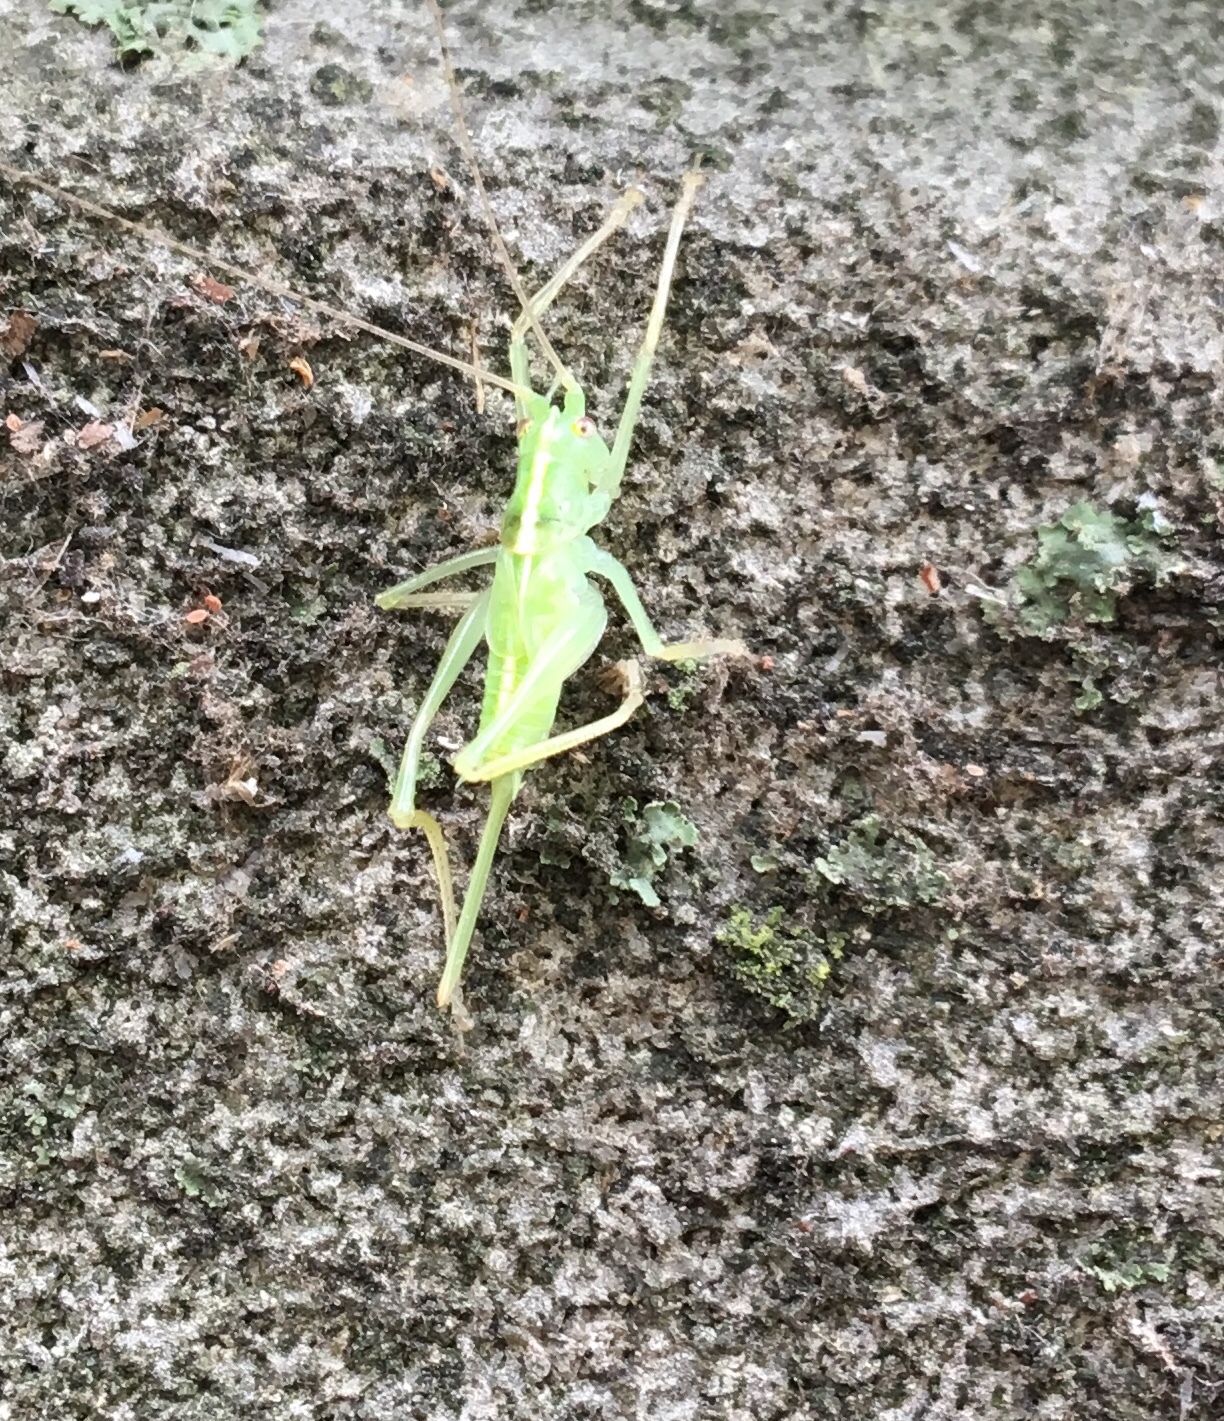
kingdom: Animalia
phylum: Arthropoda
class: Insecta
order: Orthoptera
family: Tettigoniidae
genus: Meconema
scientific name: Meconema thalassinum
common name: Oak bush-cricket
